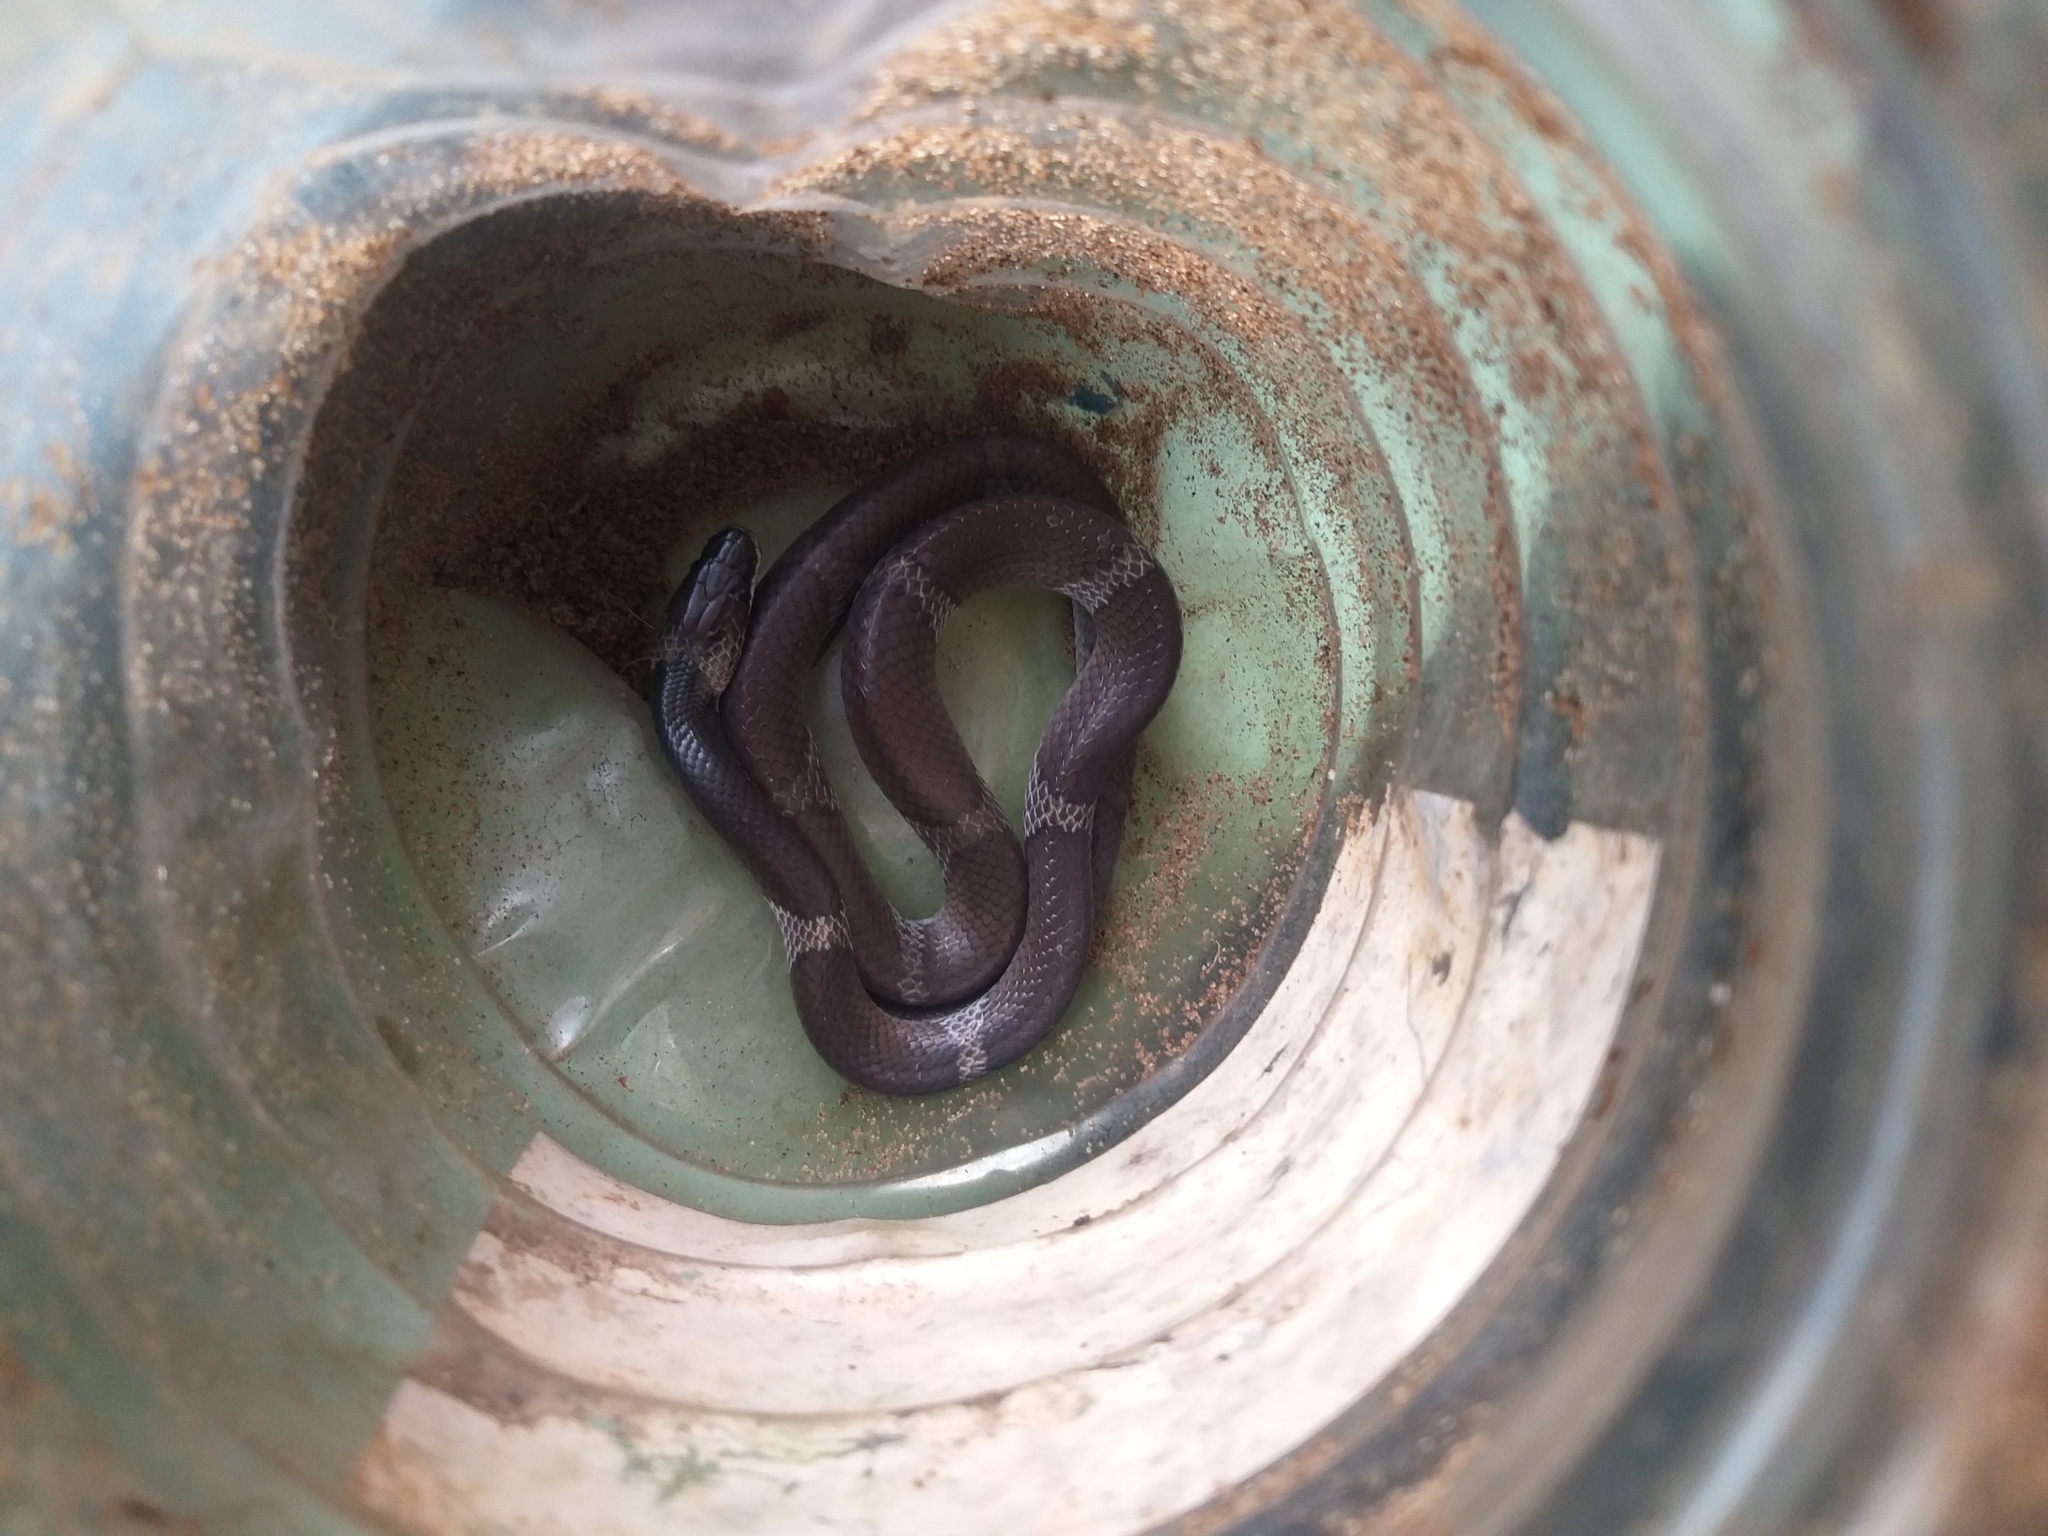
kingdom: Animalia
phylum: Chordata
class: Squamata
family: Colubridae
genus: Lycodon
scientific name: Lycodon aulicus
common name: Common wolf snake
